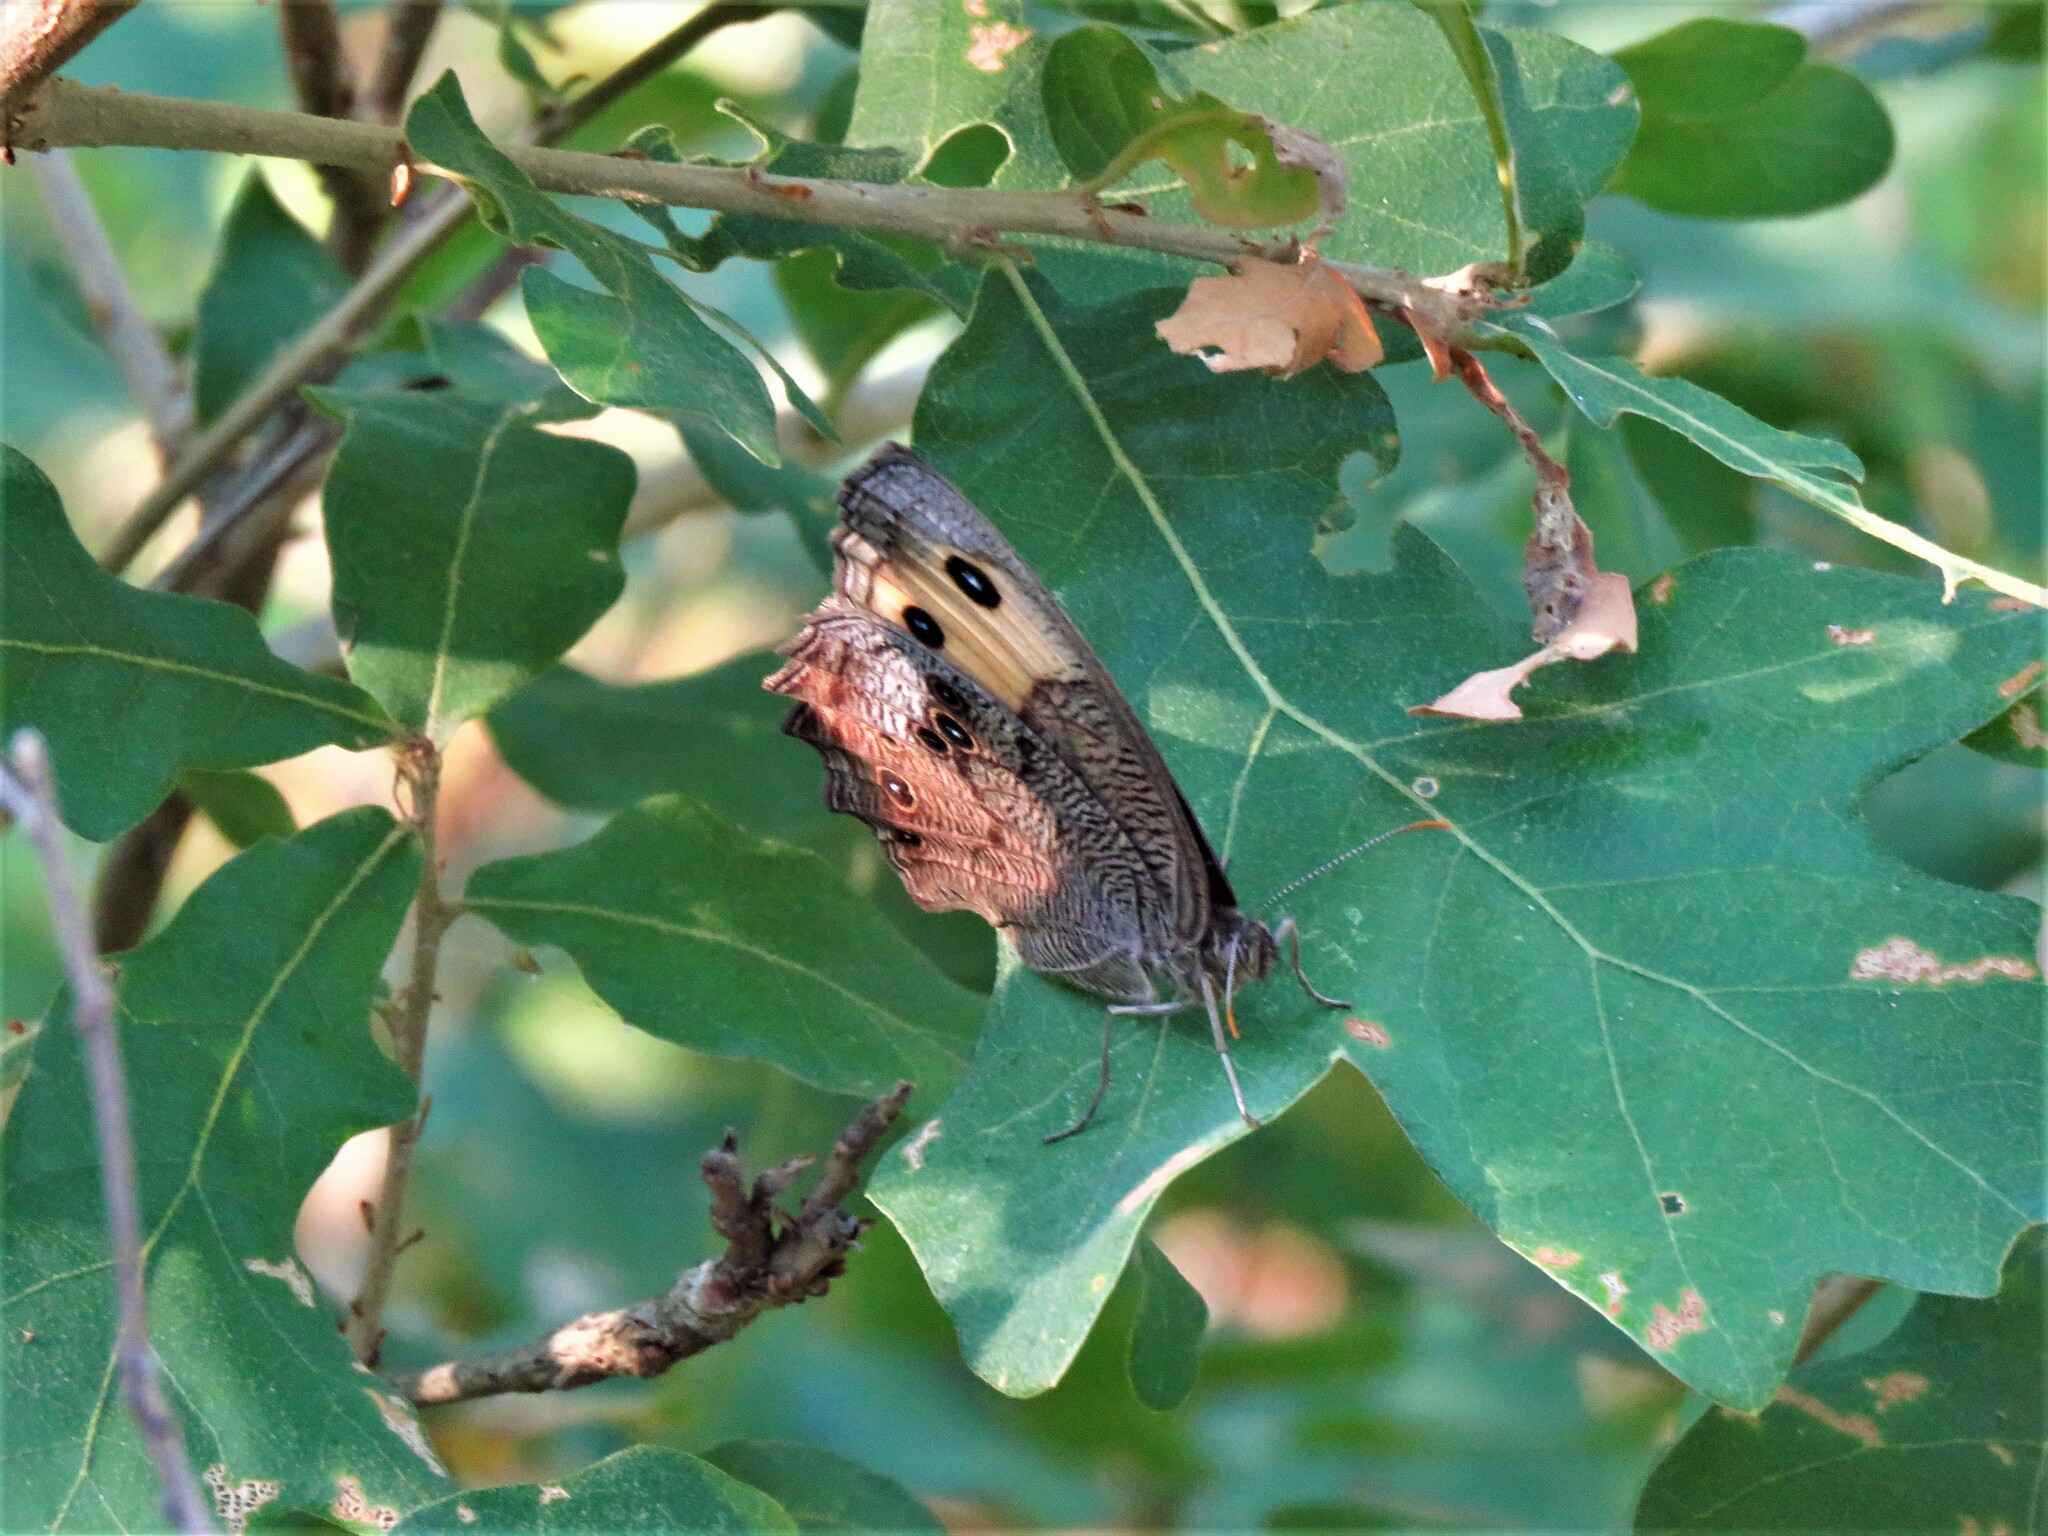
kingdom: Animalia
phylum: Arthropoda
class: Insecta
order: Lepidoptera
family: Nymphalidae
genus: Cercyonis
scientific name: Cercyonis pegala
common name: Common wood-nymph
